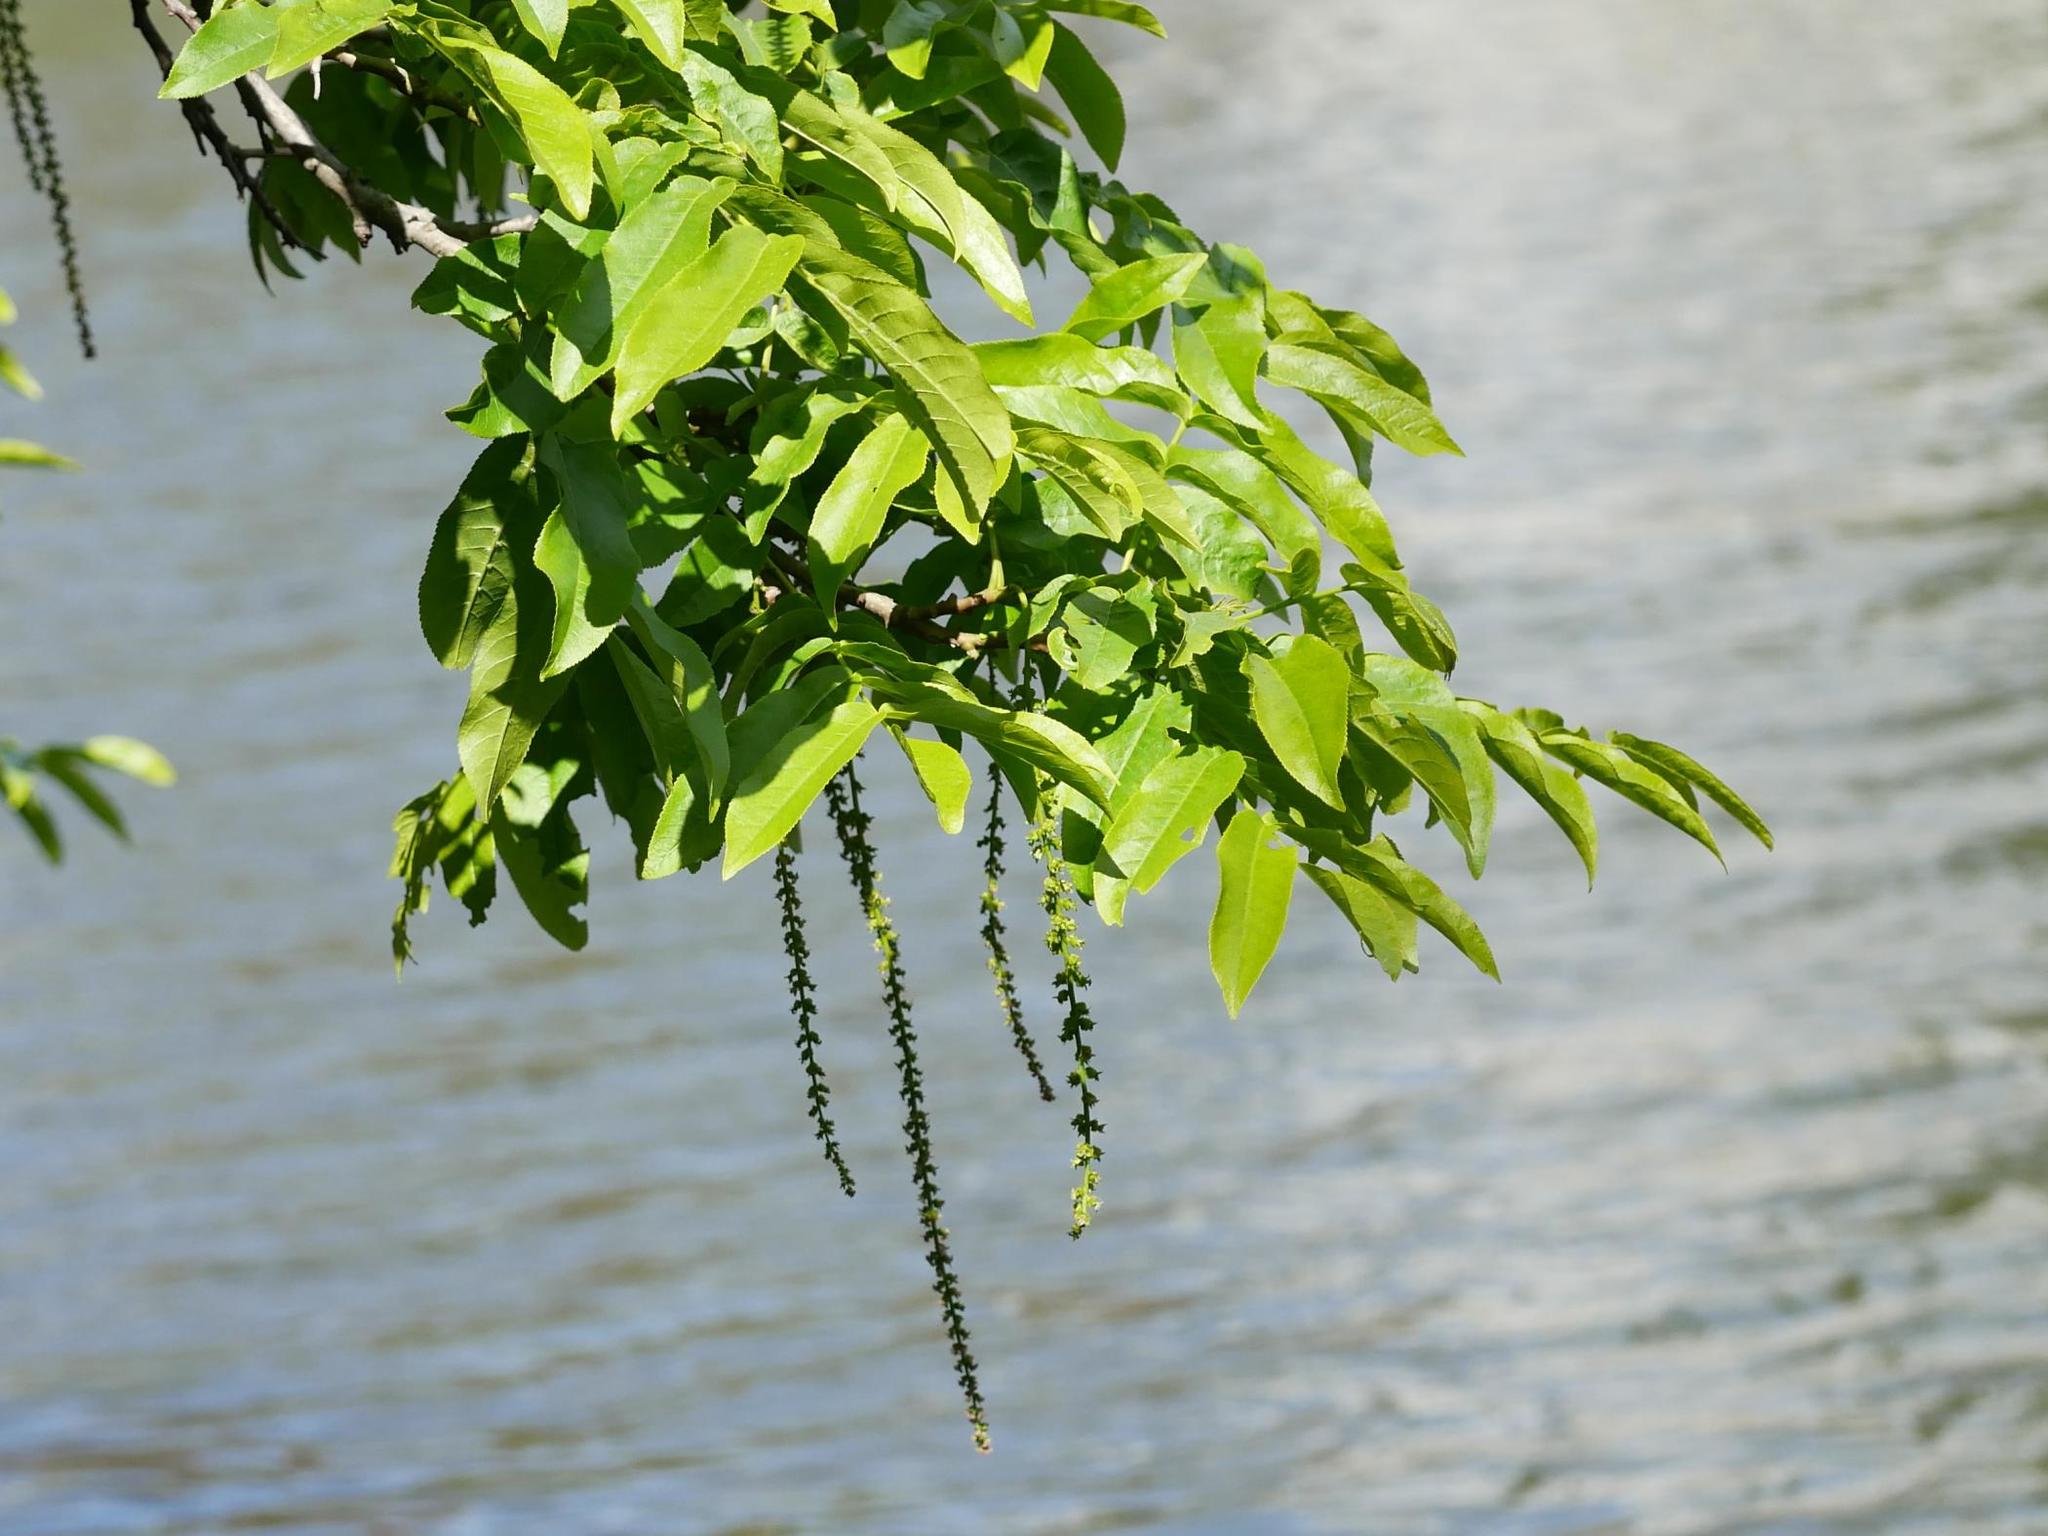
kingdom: Plantae
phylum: Tracheophyta
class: Magnoliopsida
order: Fagales
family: Juglandaceae
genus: Pterocarya
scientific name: Pterocarya fraxinifolia
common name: Caucasian wingnut
